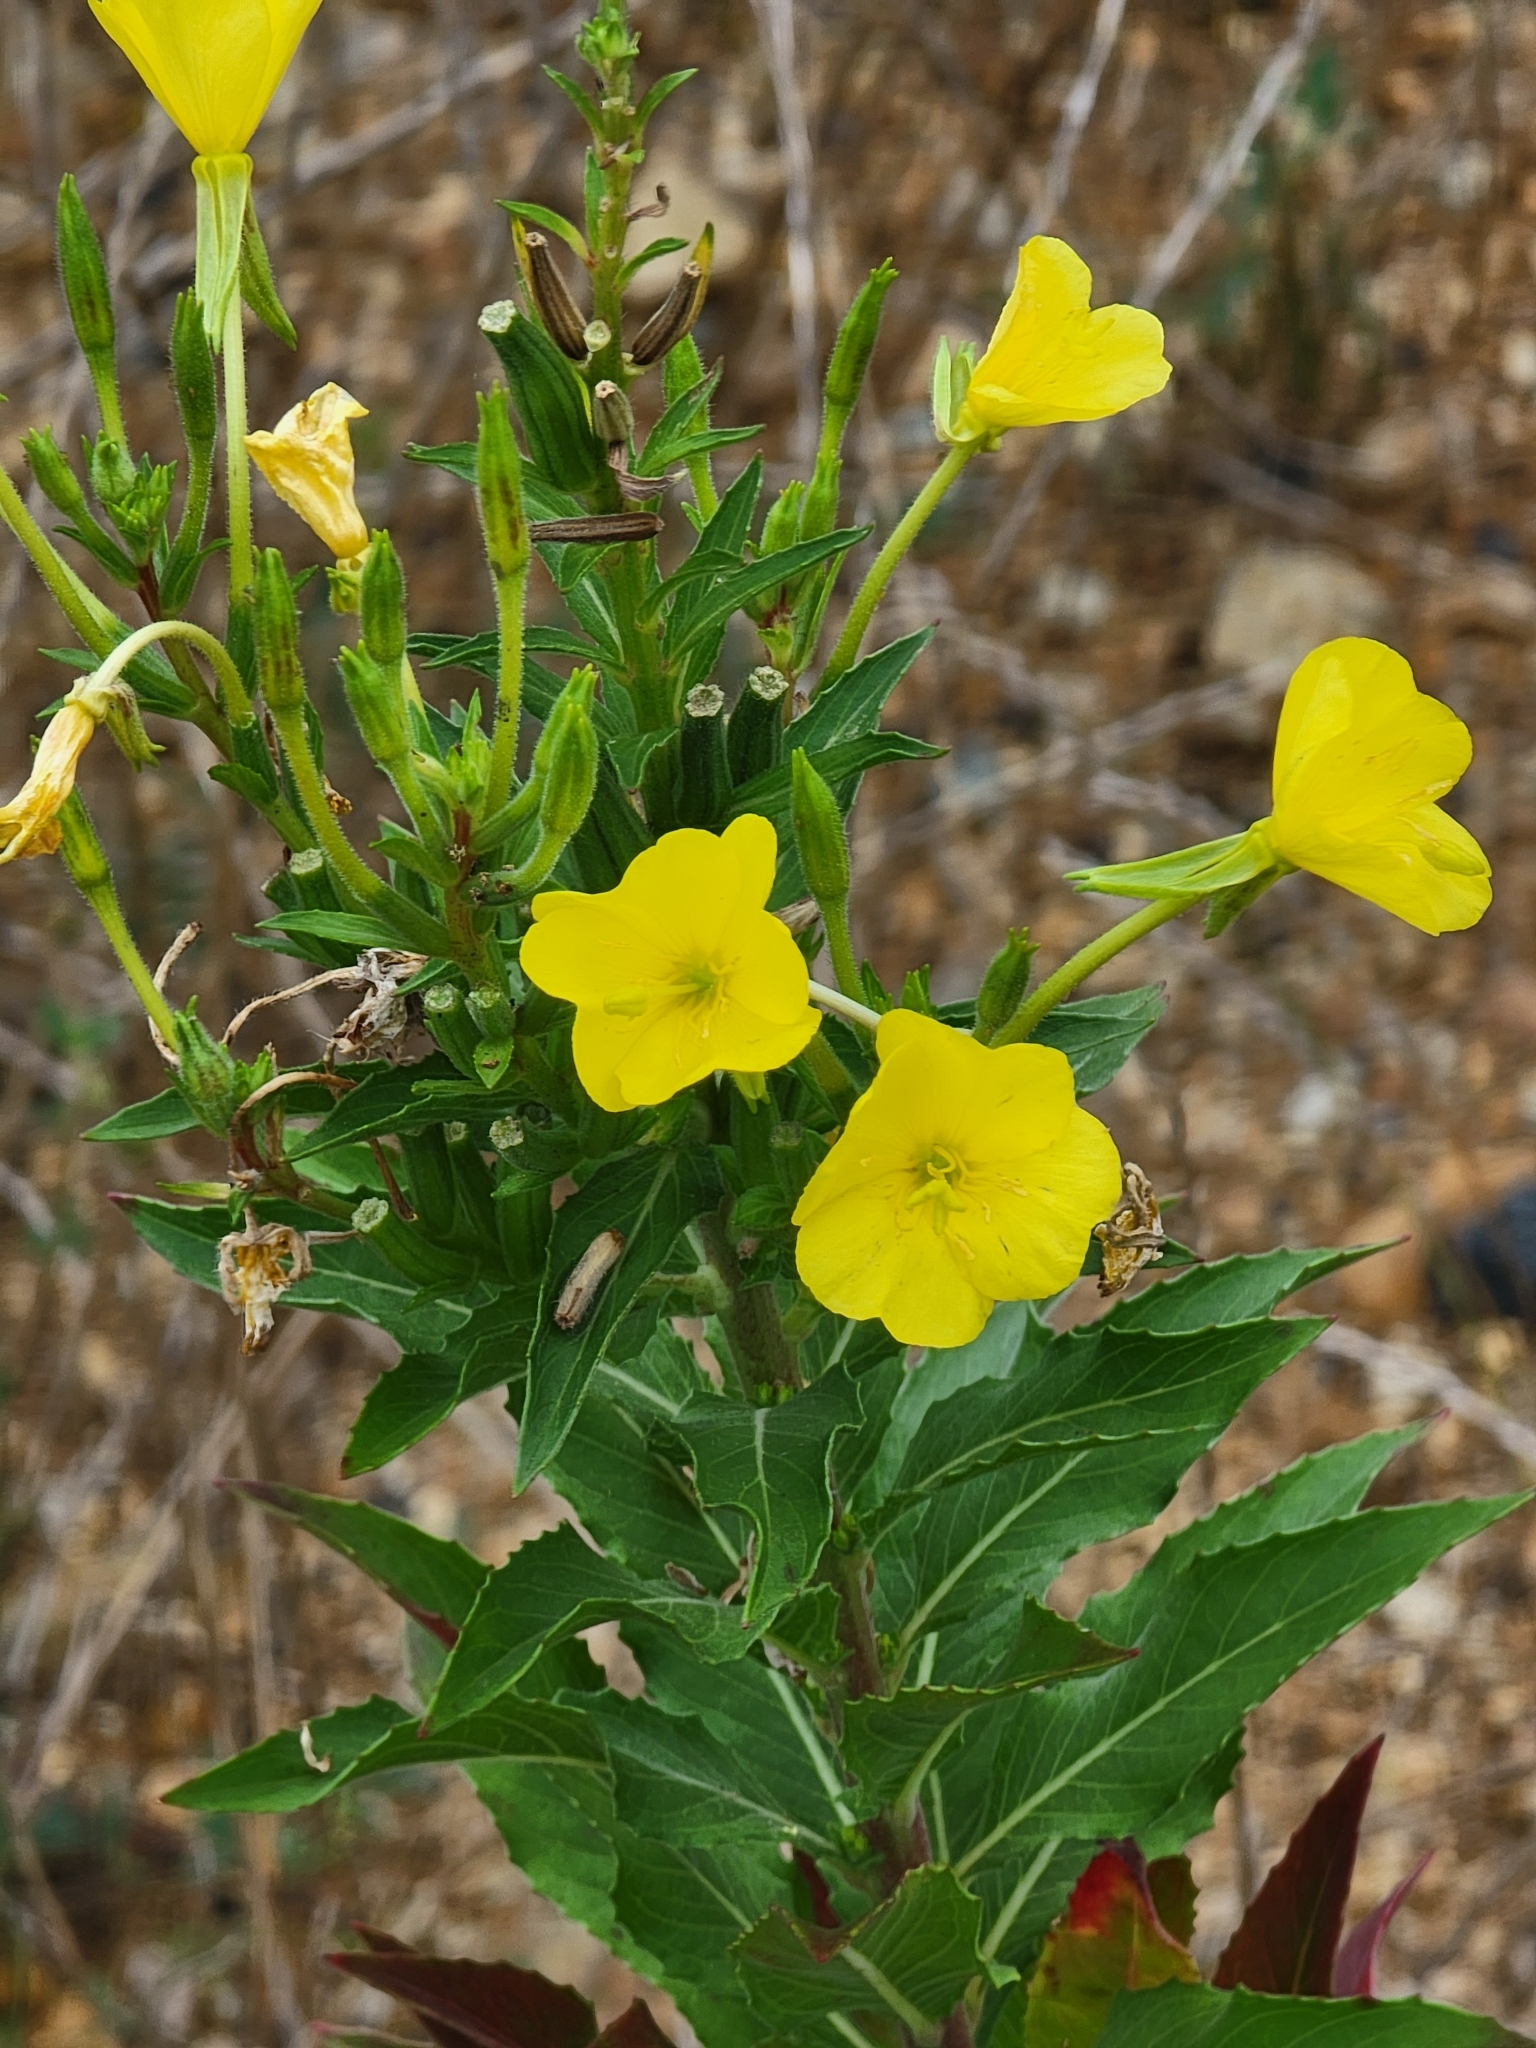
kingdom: Plantae
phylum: Tracheophyta
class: Magnoliopsida
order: Myrtales
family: Onagraceae
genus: Oenothera
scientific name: Oenothera biennis
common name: Common evening-primrose
